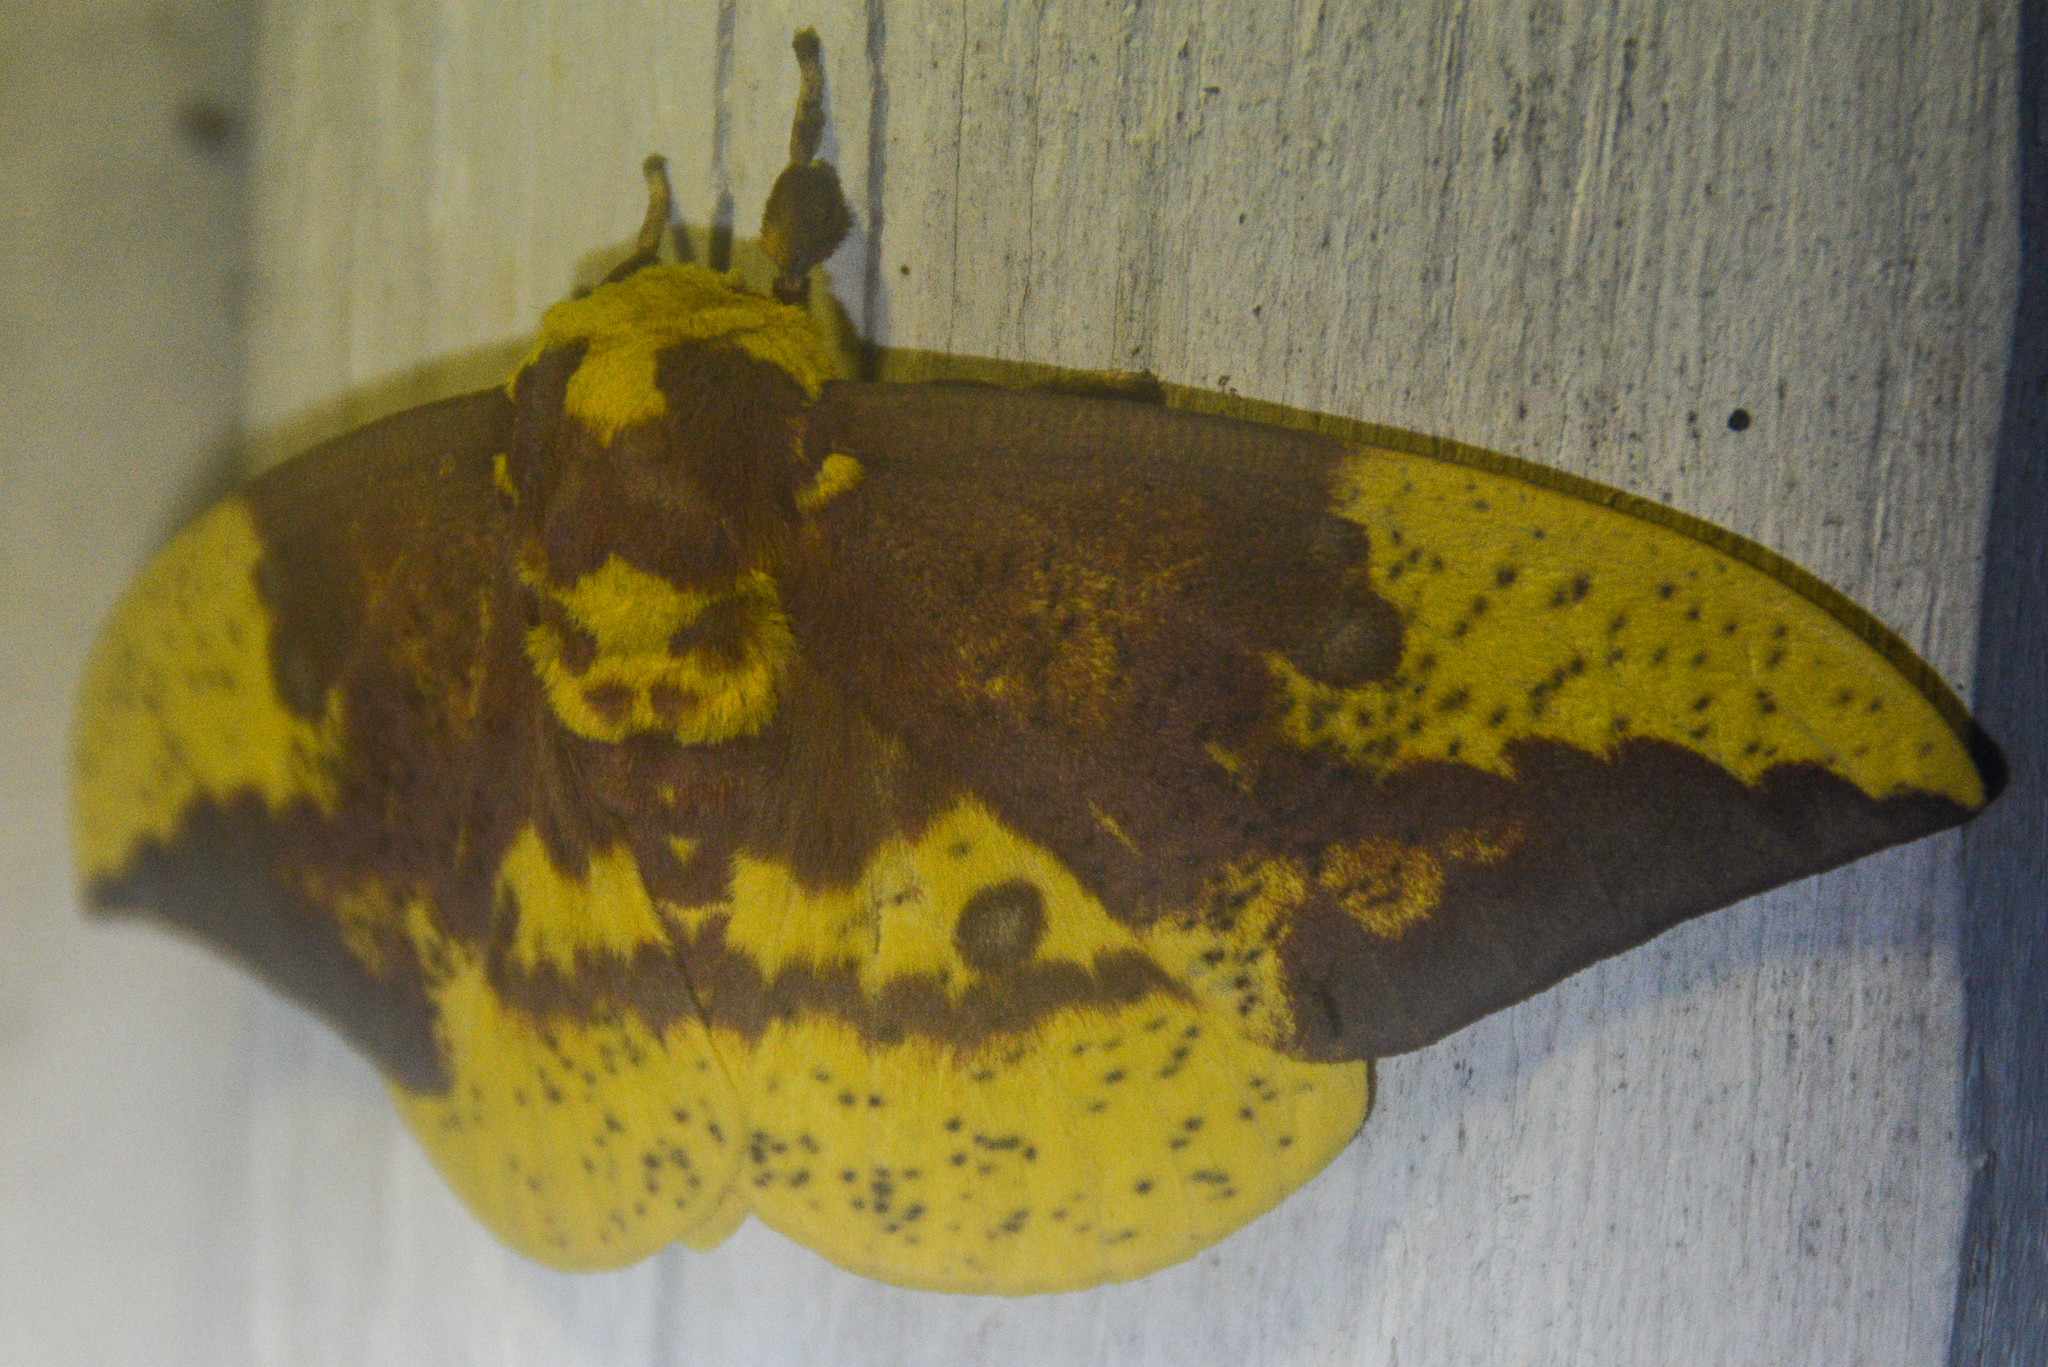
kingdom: Animalia
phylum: Arthropoda
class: Insecta
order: Lepidoptera
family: Saturniidae
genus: Eacles
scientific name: Eacles imperialis
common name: Imperial moth
